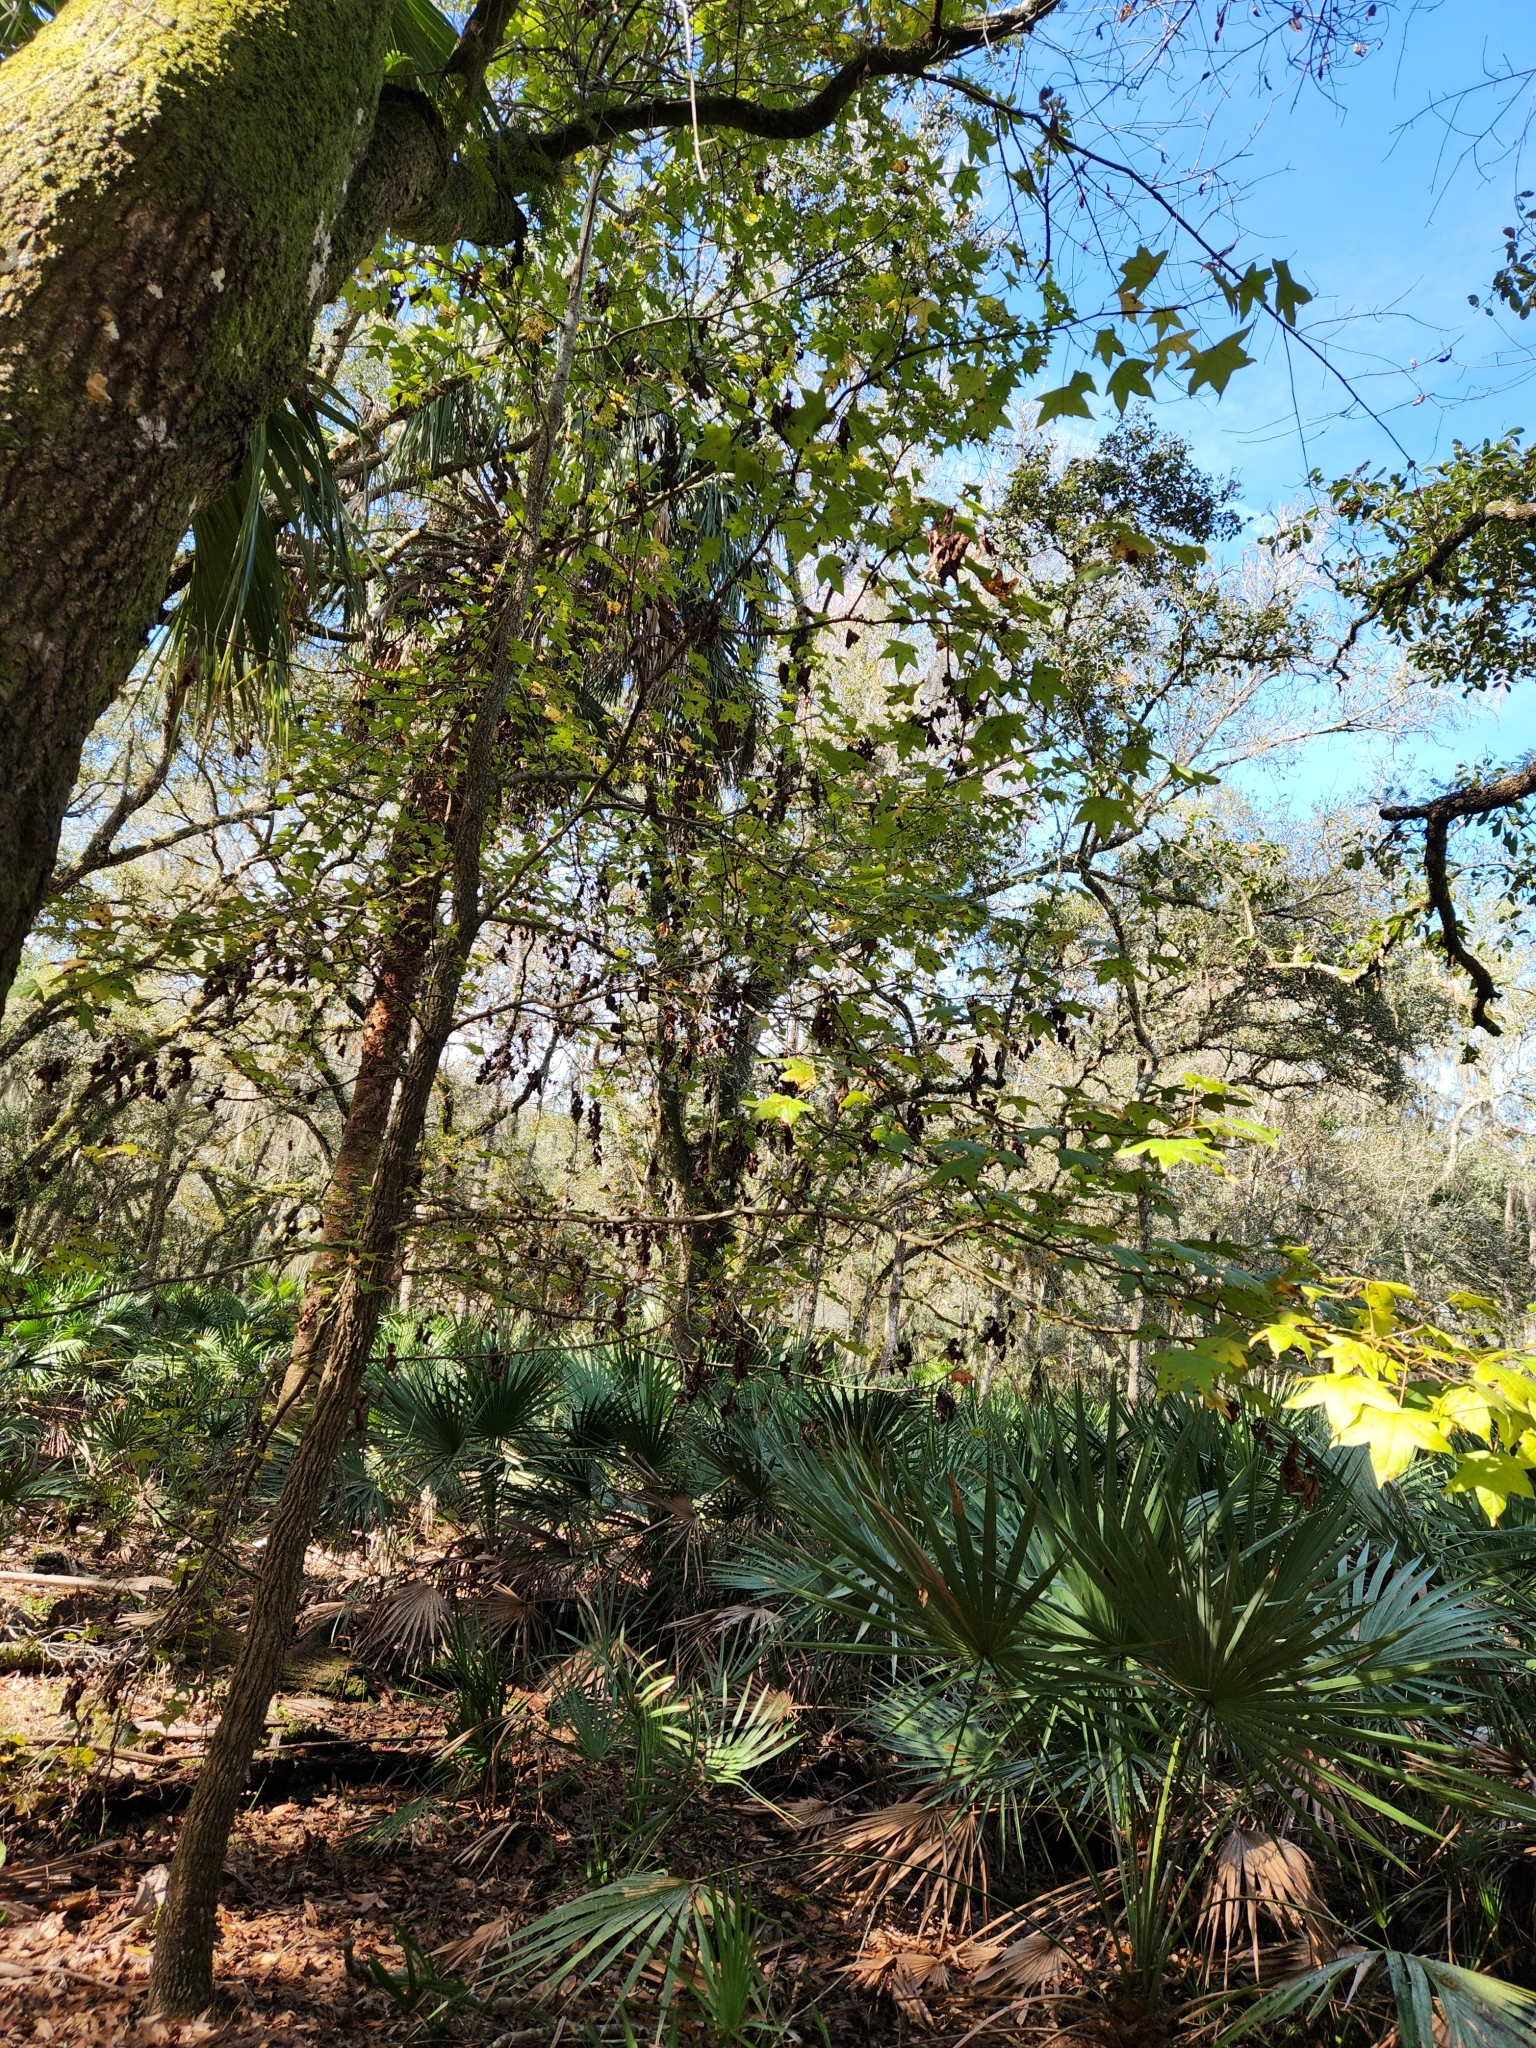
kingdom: Plantae
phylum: Tracheophyta
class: Magnoliopsida
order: Saxifragales
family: Altingiaceae
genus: Liquidambar
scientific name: Liquidambar styraciflua
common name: Sweet gum
